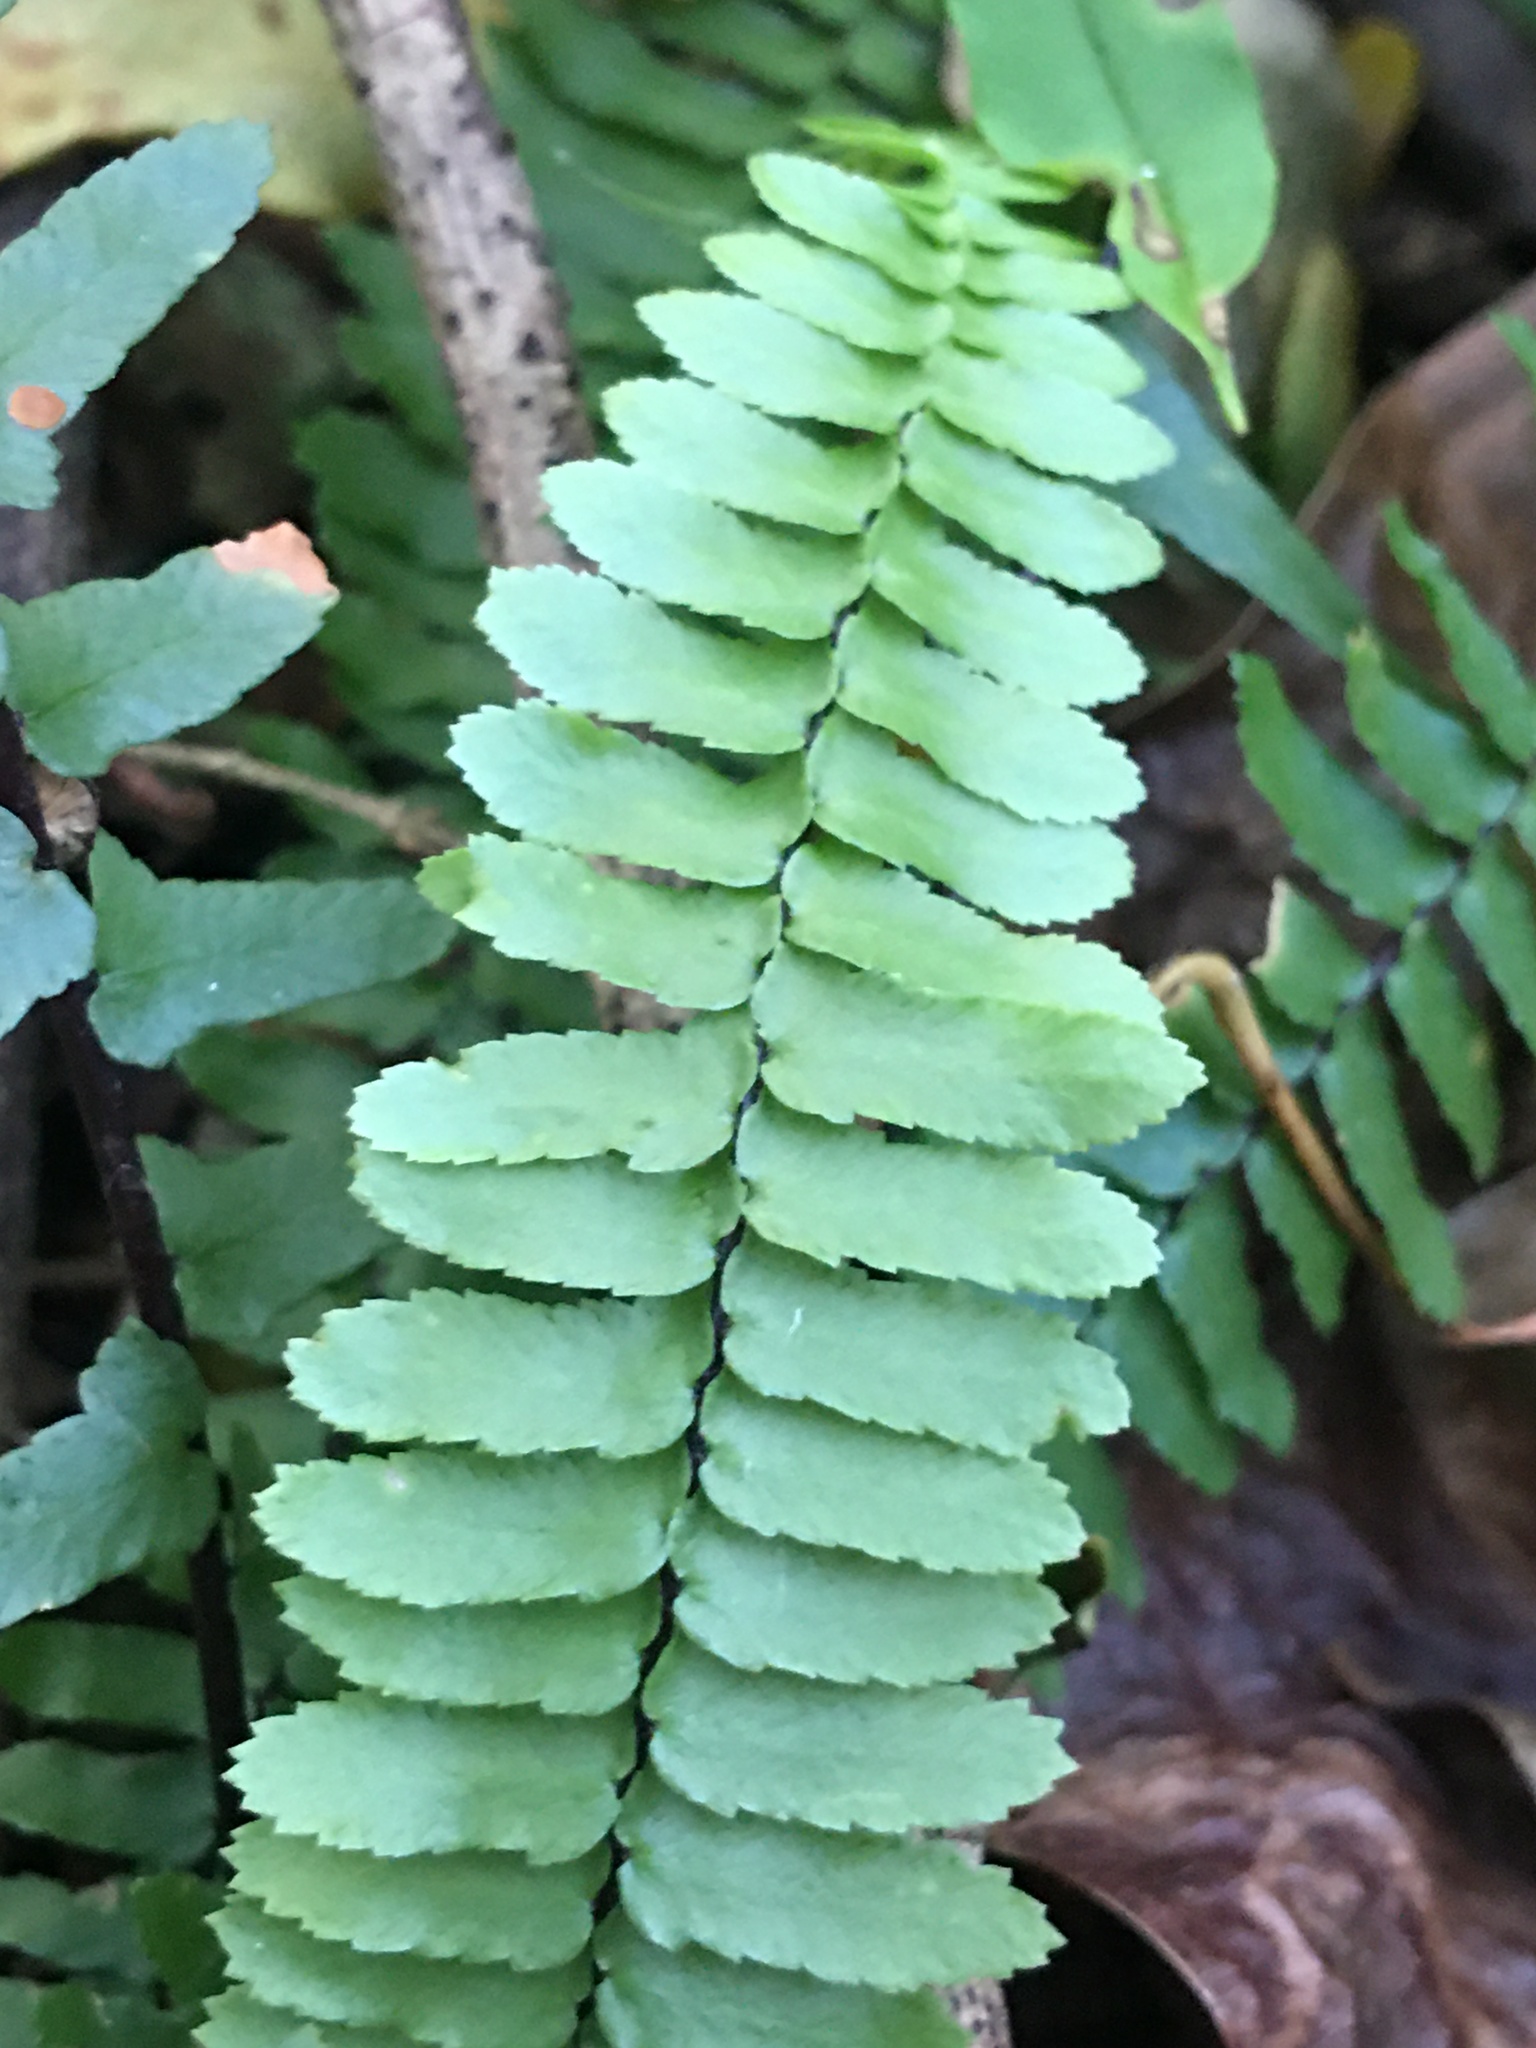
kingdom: Plantae
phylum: Tracheophyta
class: Polypodiopsida
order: Polypodiales
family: Aspleniaceae
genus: Asplenium
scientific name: Asplenium platyneuron
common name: Ebony spleenwort
